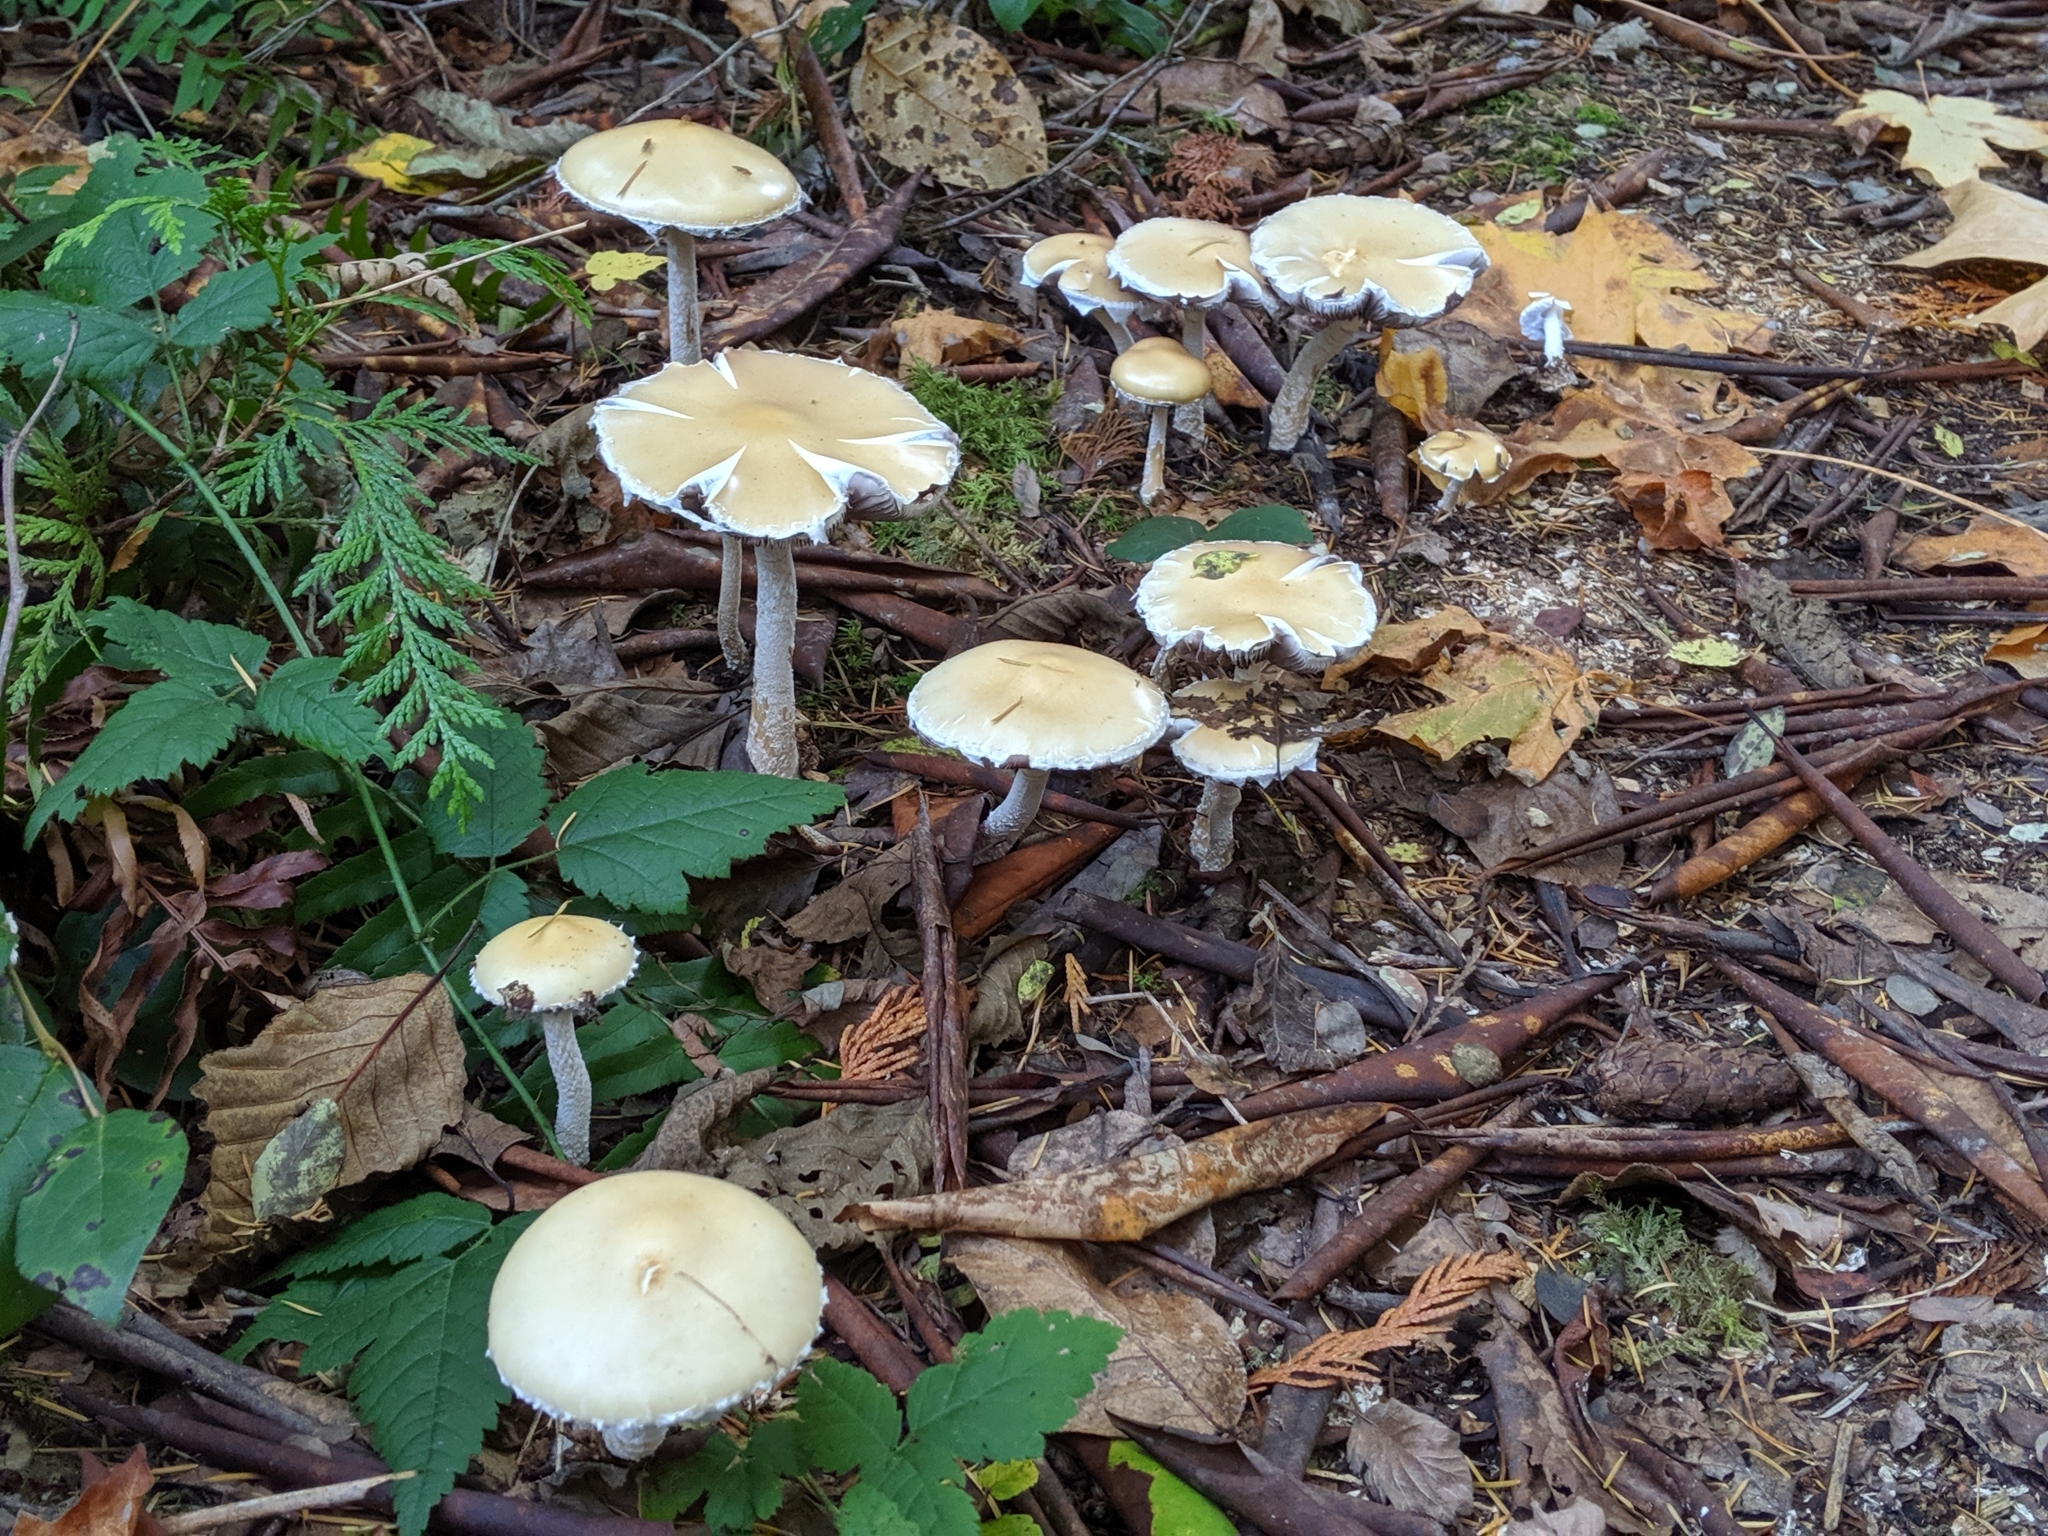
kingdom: Fungi
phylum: Basidiomycota
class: Agaricomycetes
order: Agaricales
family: Strophariaceae
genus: Stropharia
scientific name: Stropharia ambigua
